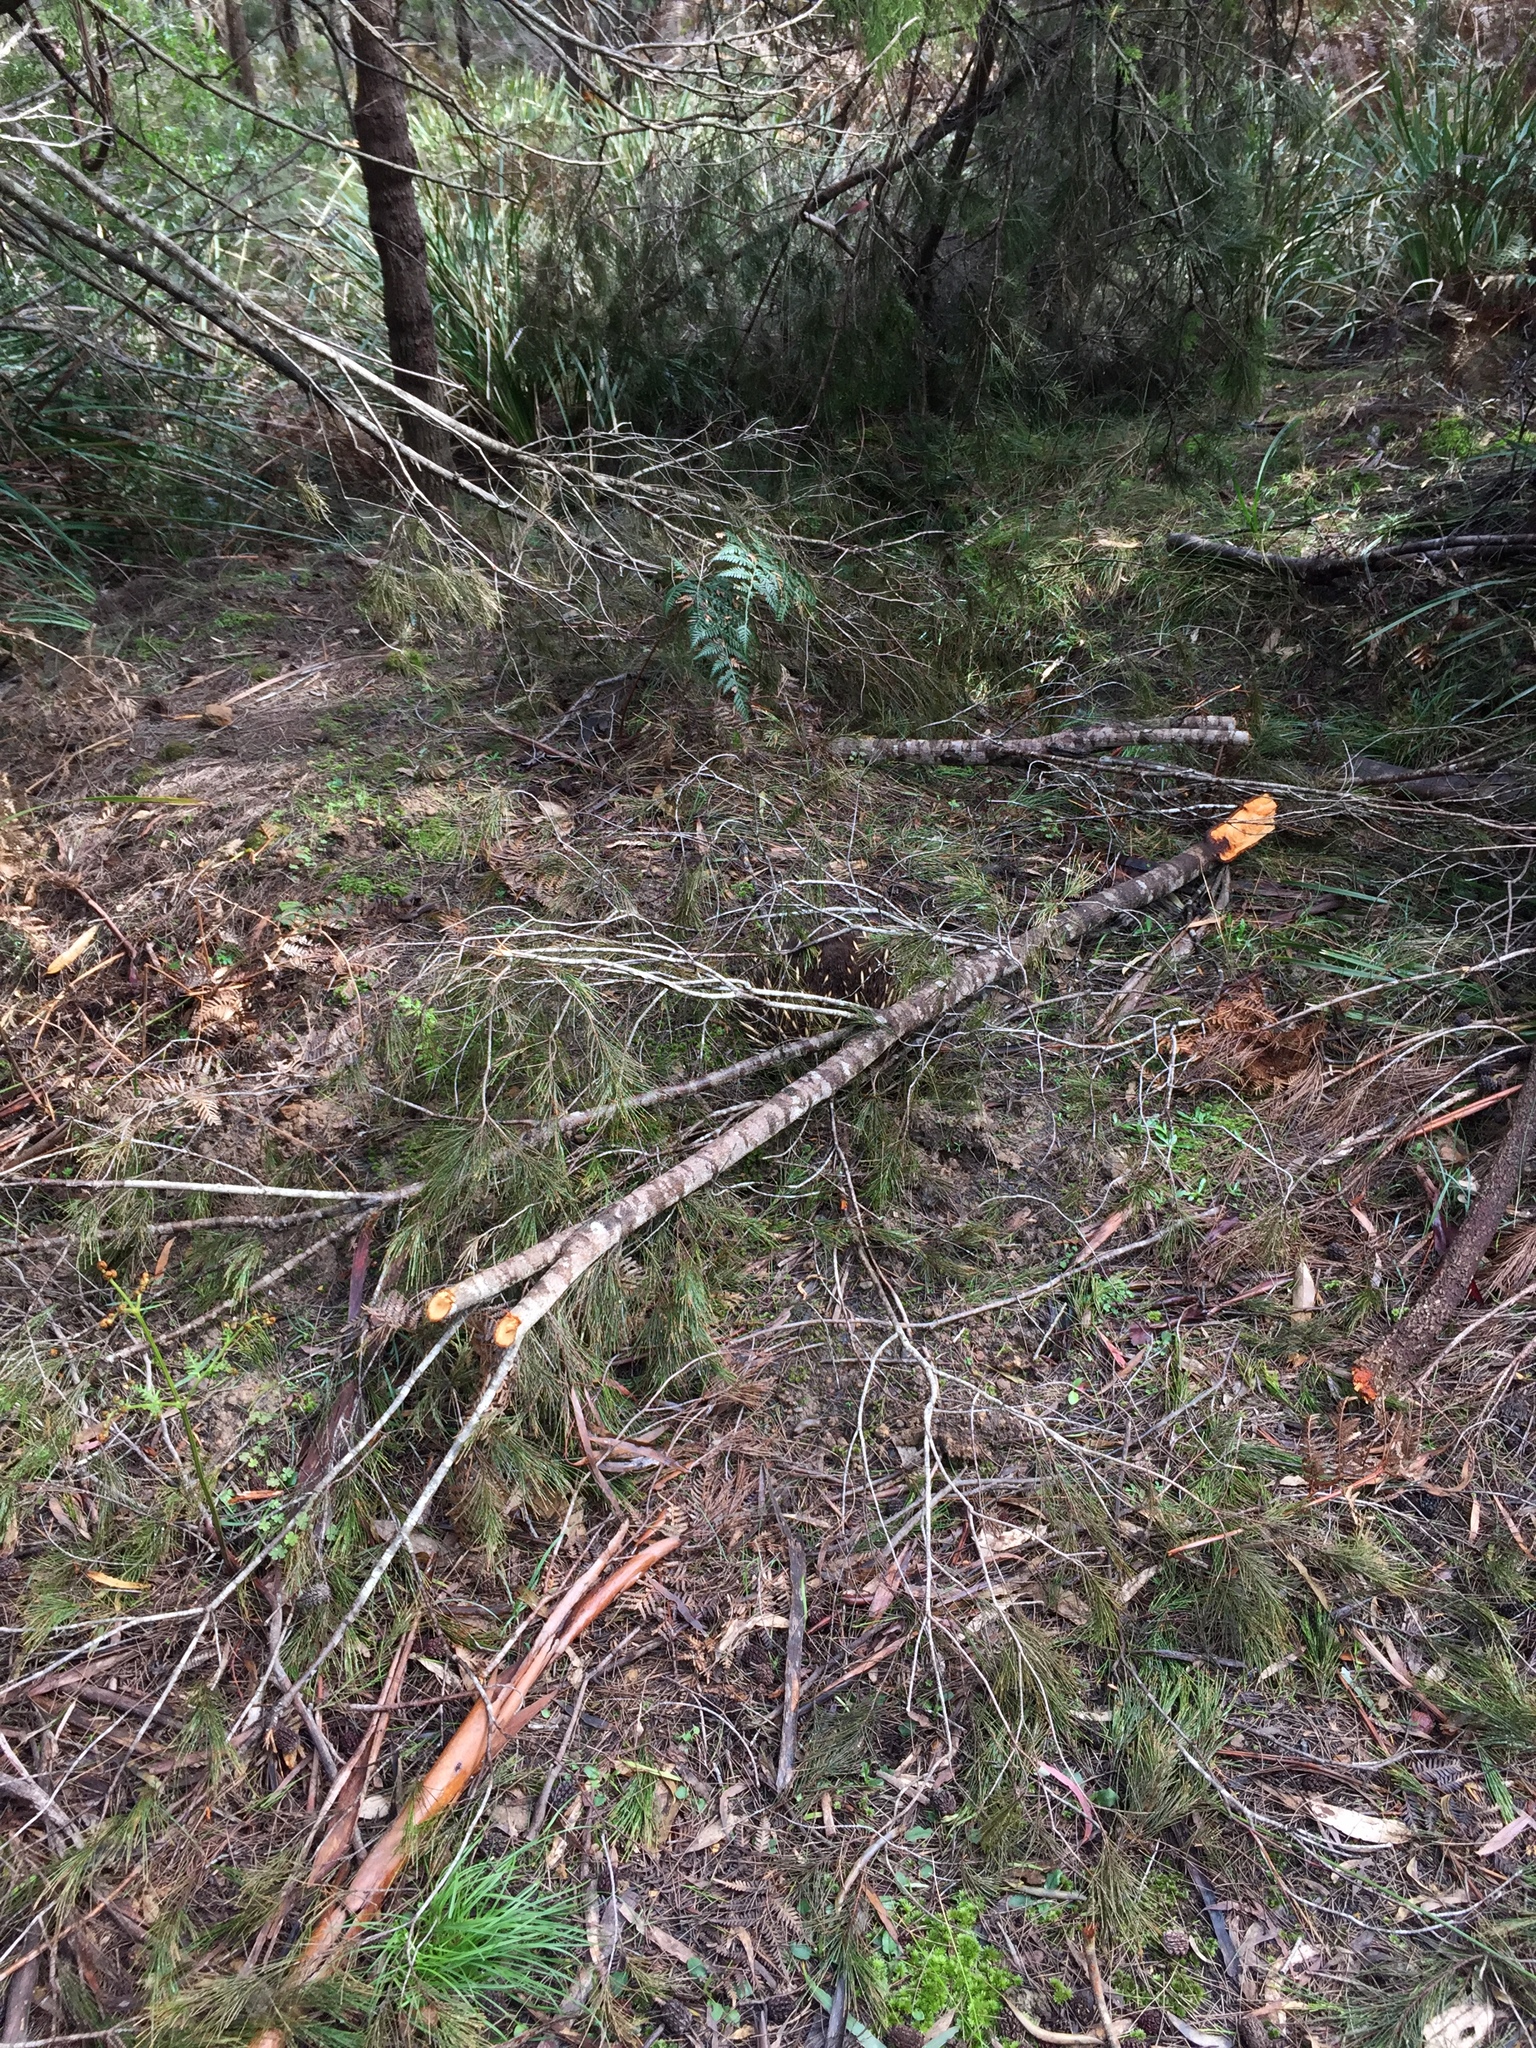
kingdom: Animalia
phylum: Chordata
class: Mammalia
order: Monotremata
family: Tachyglossidae
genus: Tachyglossus
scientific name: Tachyglossus aculeatus
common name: Short-beaked echidna
